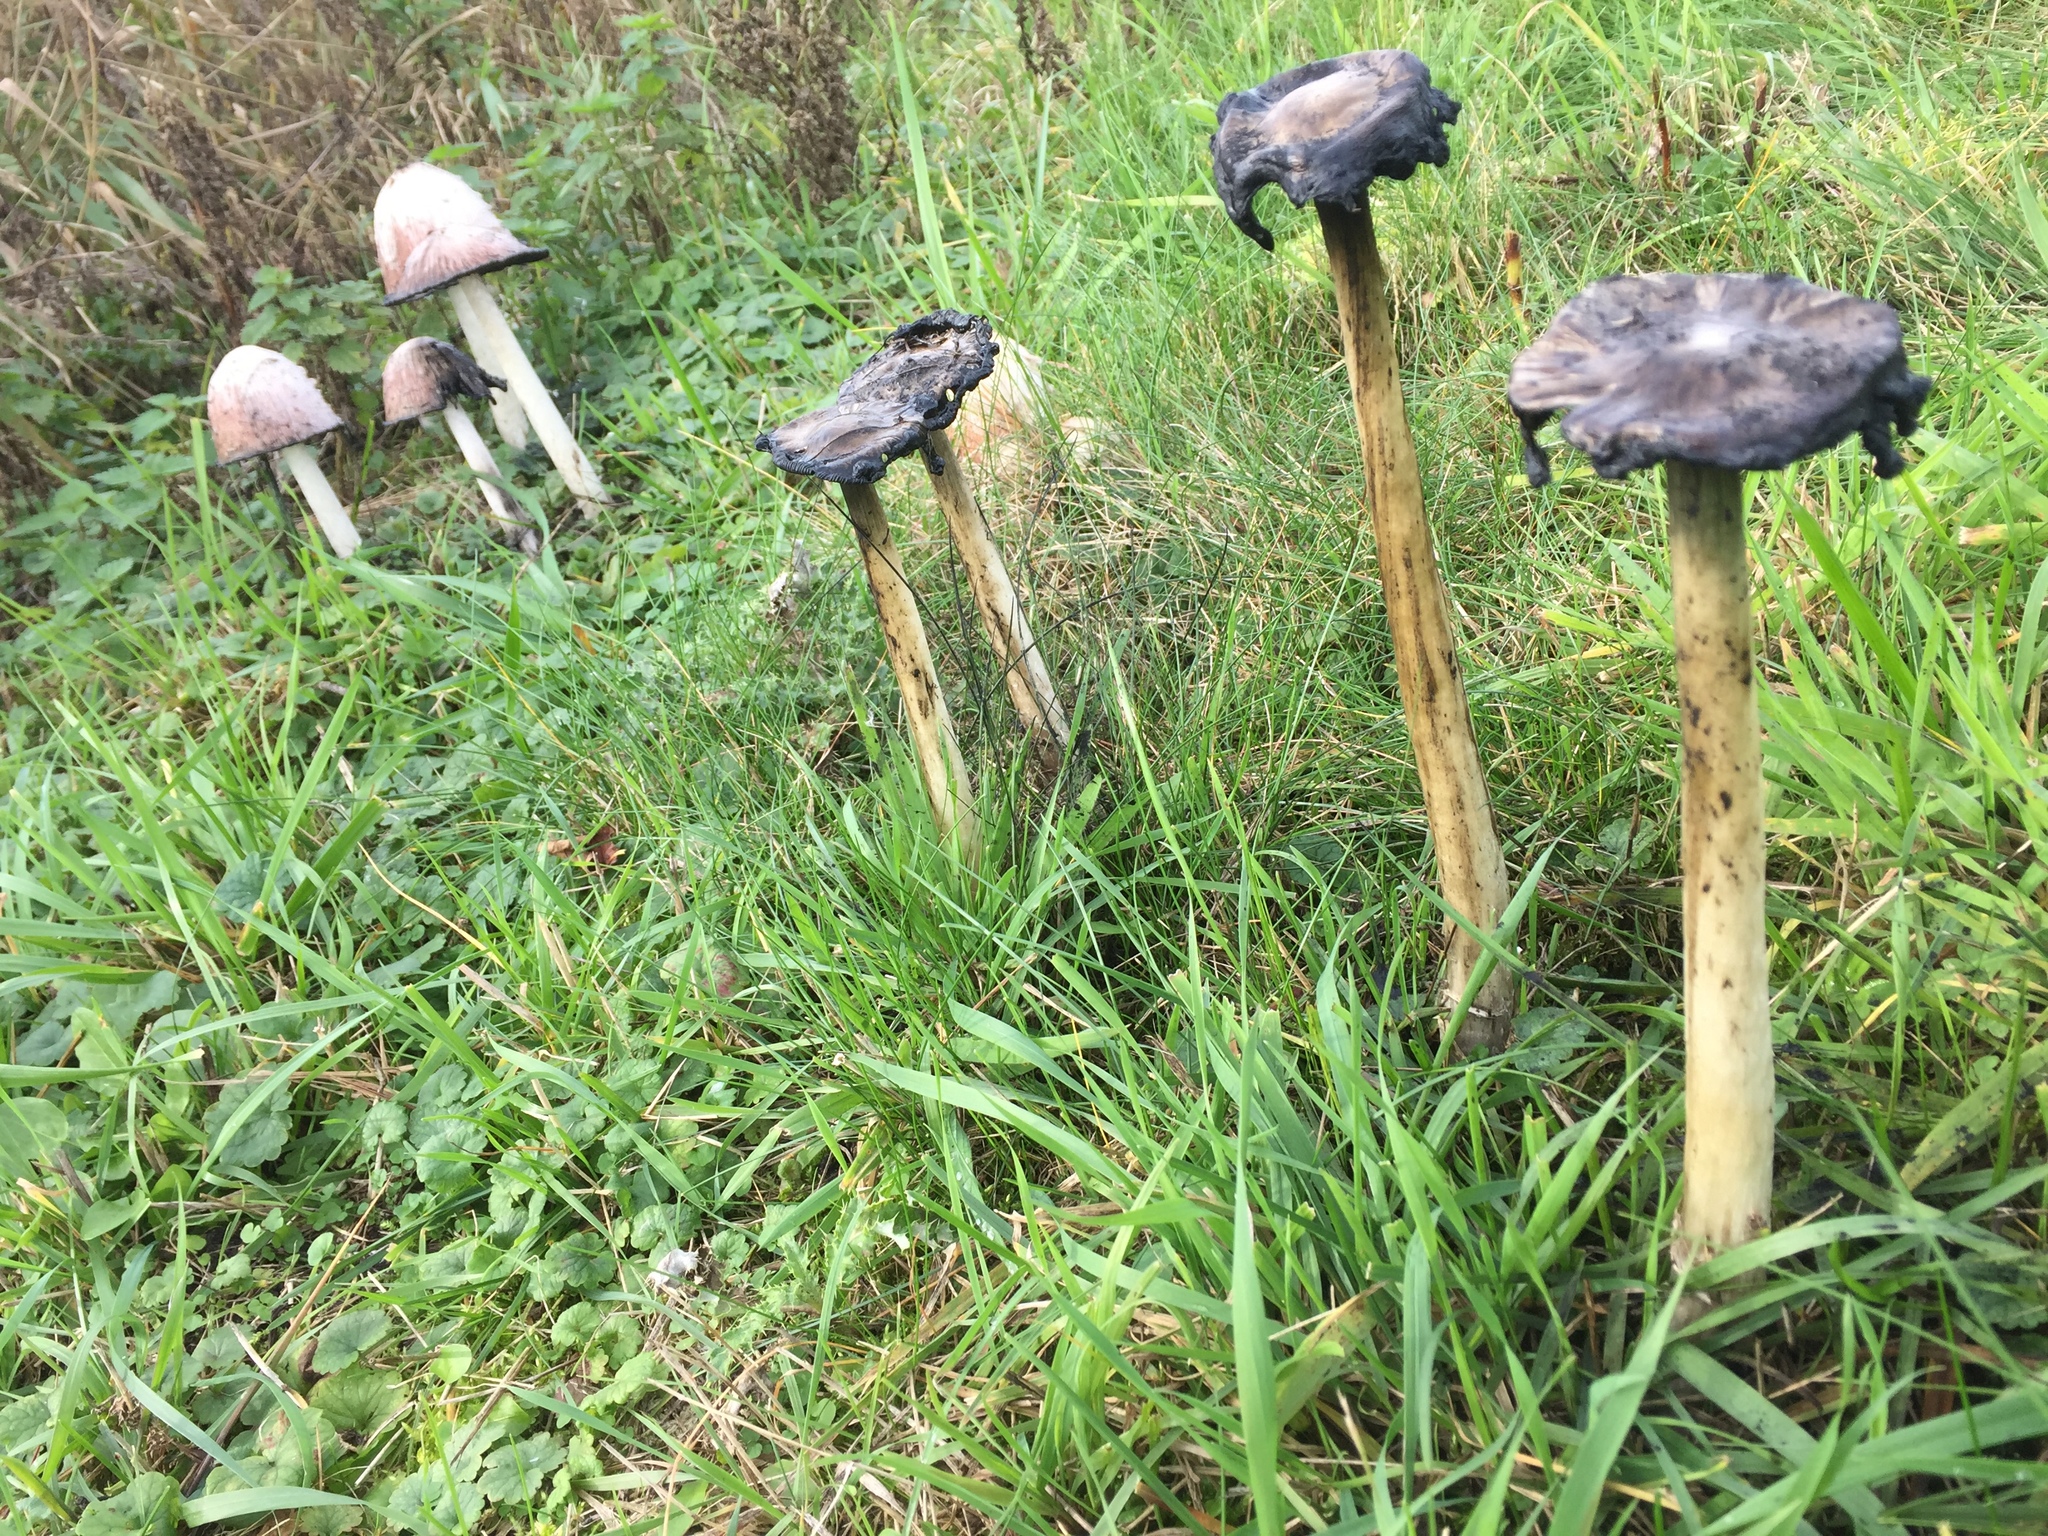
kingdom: Fungi
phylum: Basidiomycota
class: Agaricomycetes
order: Agaricales
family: Agaricaceae
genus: Coprinus
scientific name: Coprinus comatus
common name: Lawyer's wig
